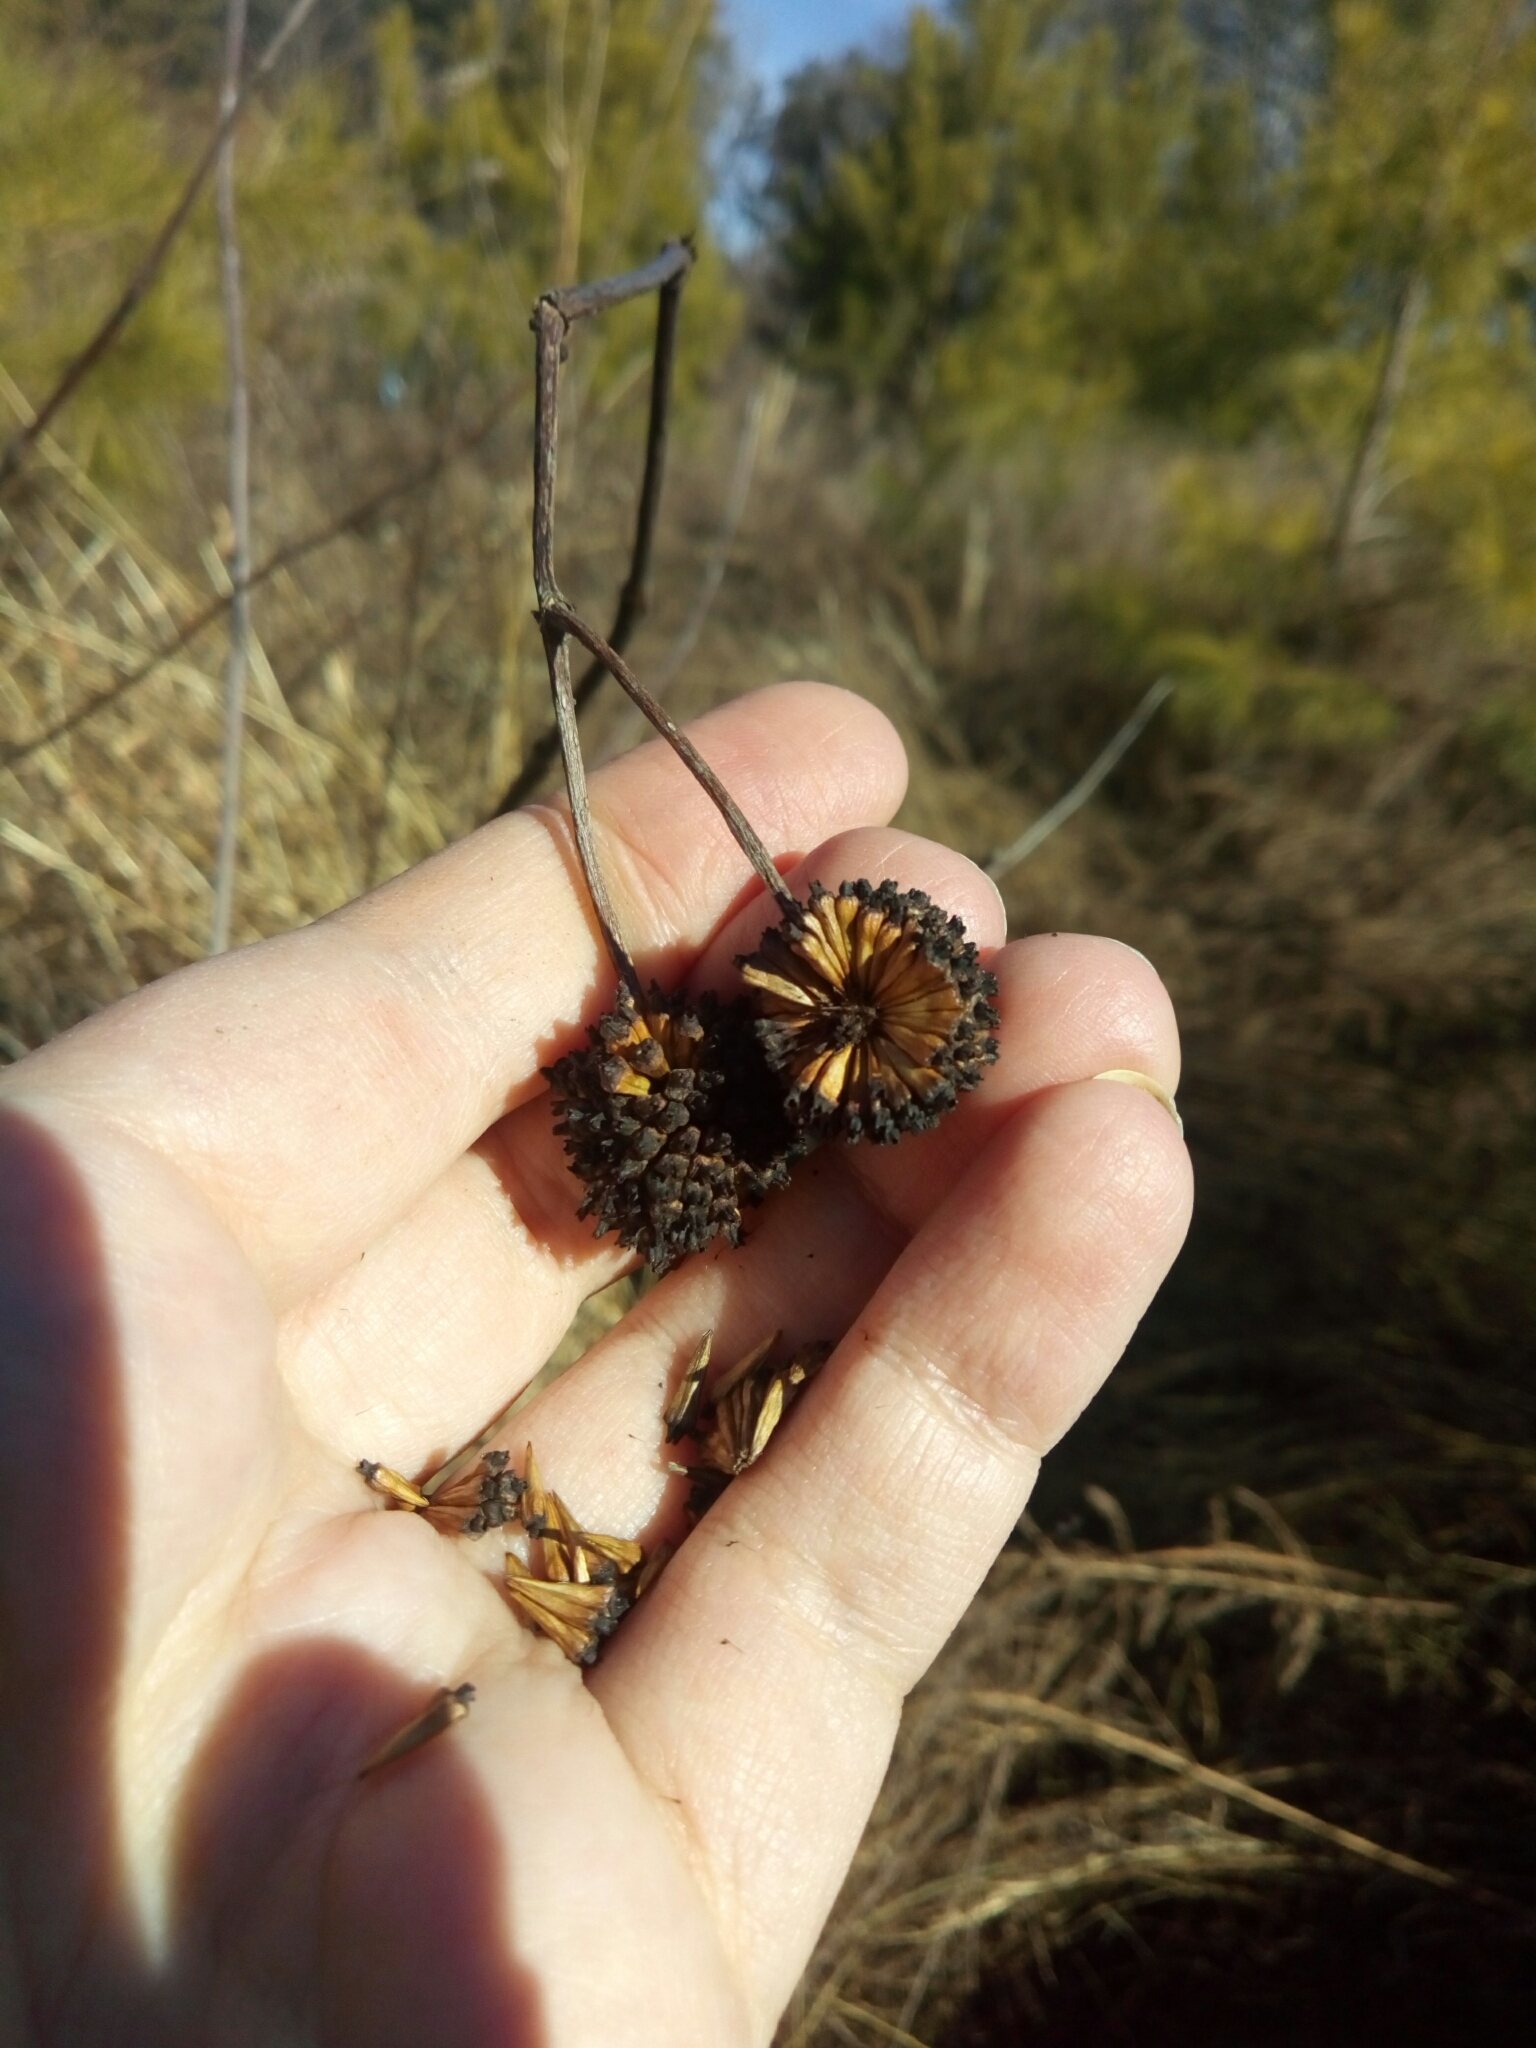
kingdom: Plantae
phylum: Tracheophyta
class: Magnoliopsida
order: Gentianales
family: Rubiaceae
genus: Cephalanthus
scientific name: Cephalanthus occidentalis
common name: Button-willow
